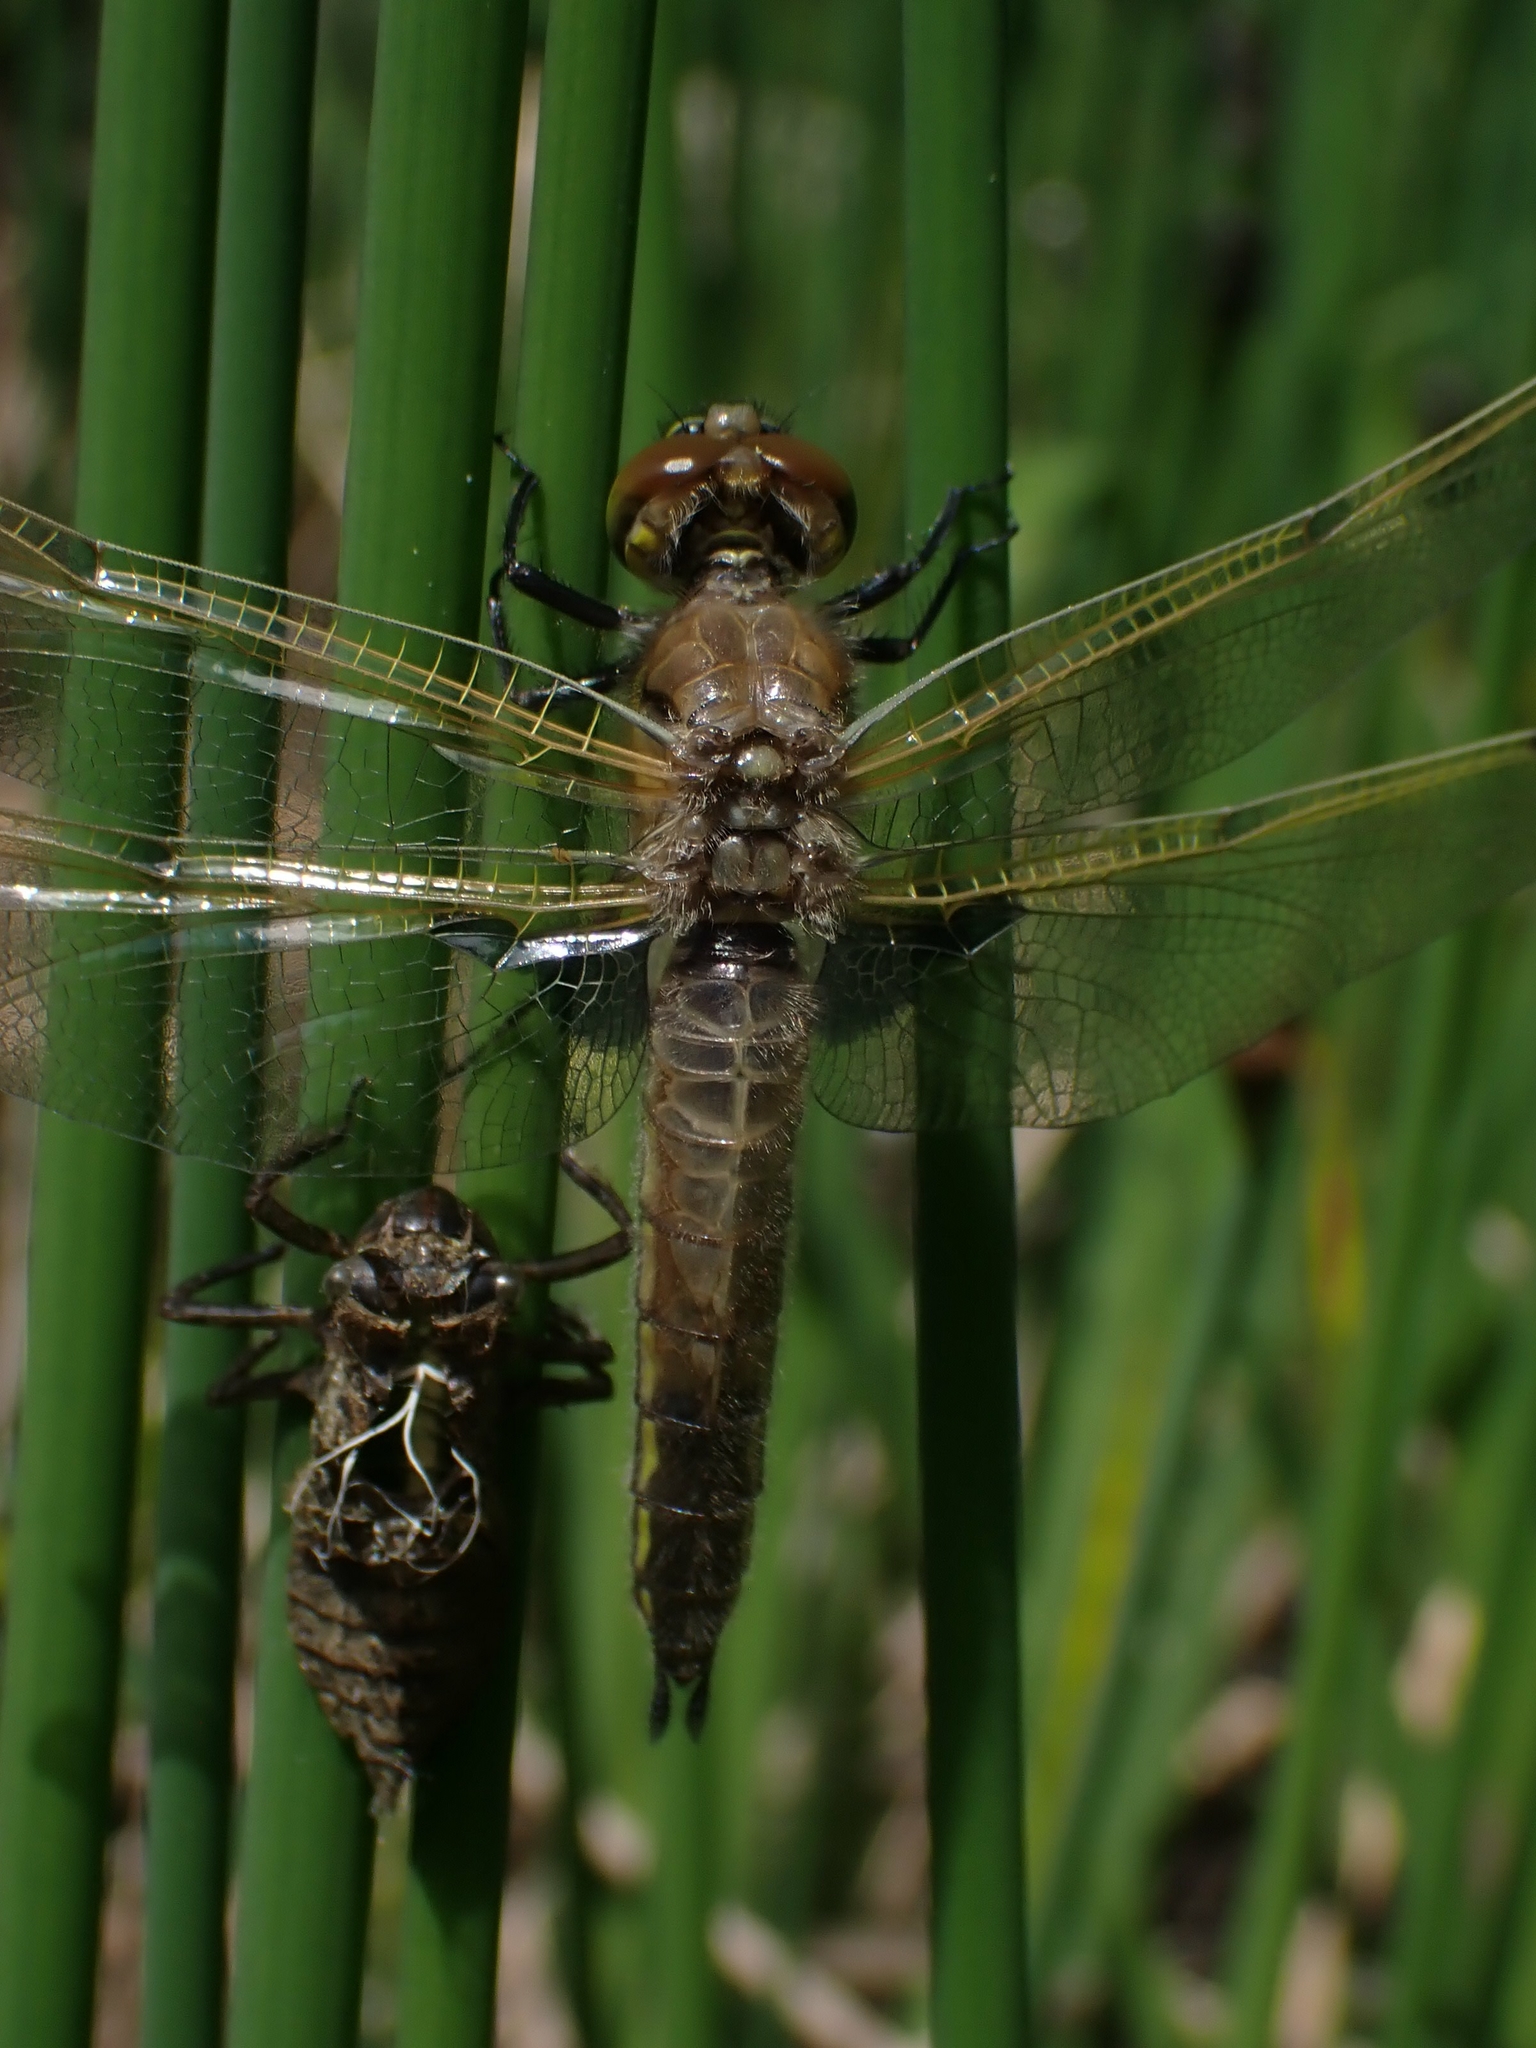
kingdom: Animalia
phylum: Arthropoda
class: Insecta
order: Odonata
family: Libellulidae
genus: Libellula
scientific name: Libellula quadrimaculata
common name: Four-spotted chaser
